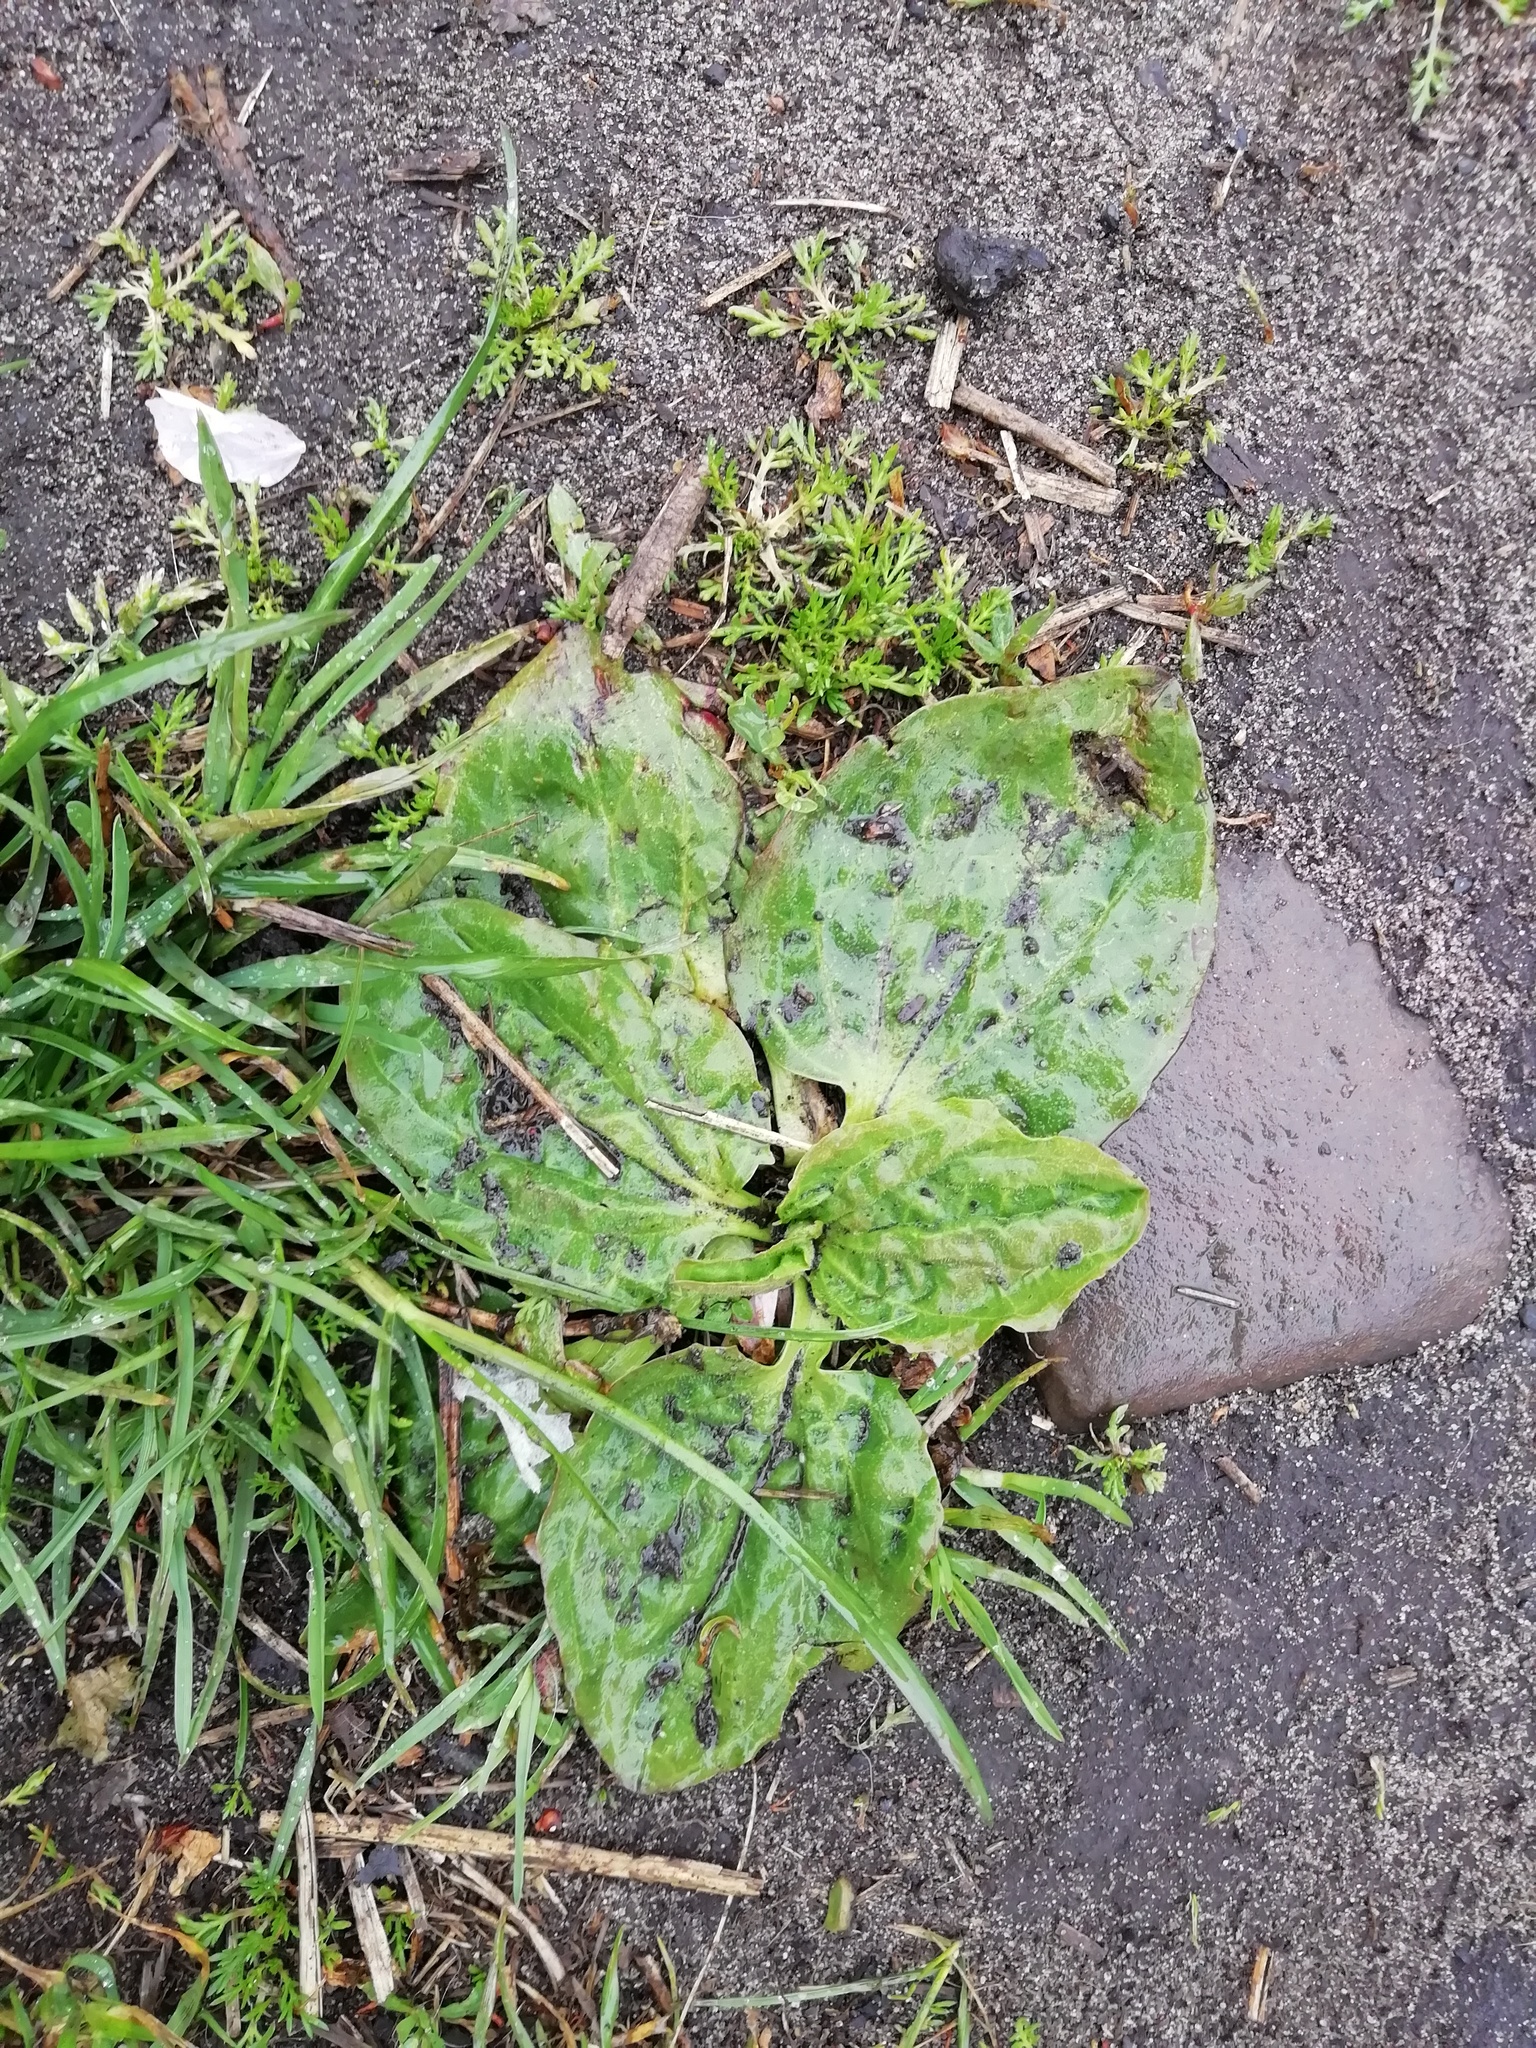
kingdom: Plantae
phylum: Tracheophyta
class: Magnoliopsida
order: Lamiales
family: Plantaginaceae
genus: Plantago
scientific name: Plantago major
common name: Common plantain
